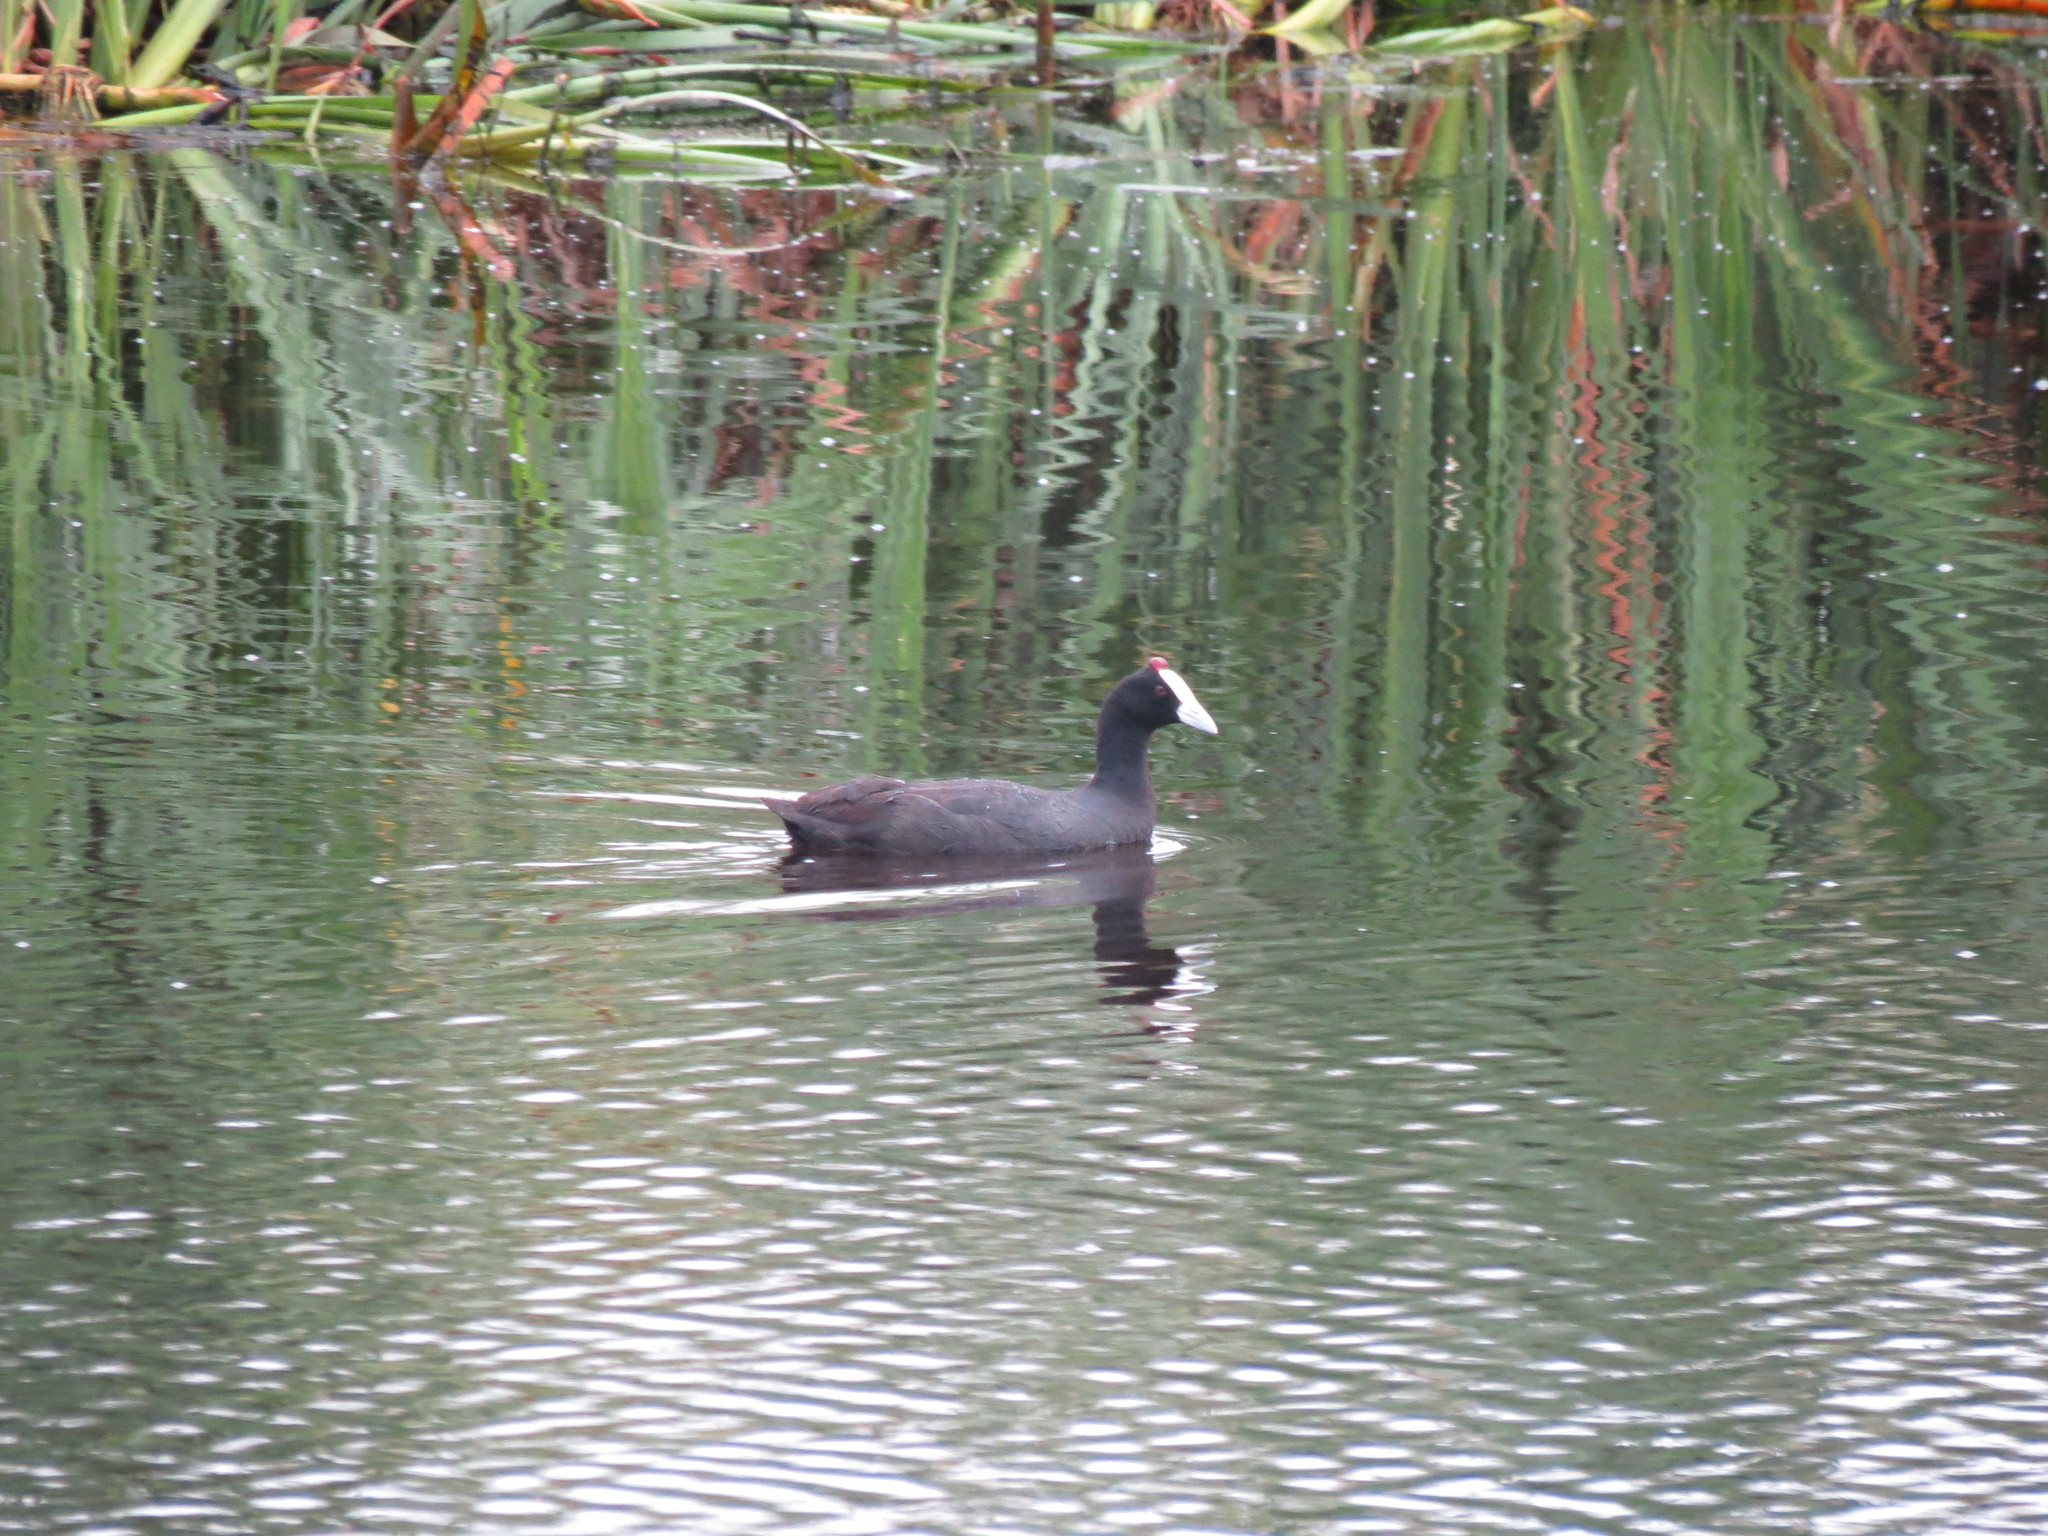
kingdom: Animalia
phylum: Chordata
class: Aves
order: Gruiformes
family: Rallidae
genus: Fulica
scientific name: Fulica cristata
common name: Red-knobbed coot
